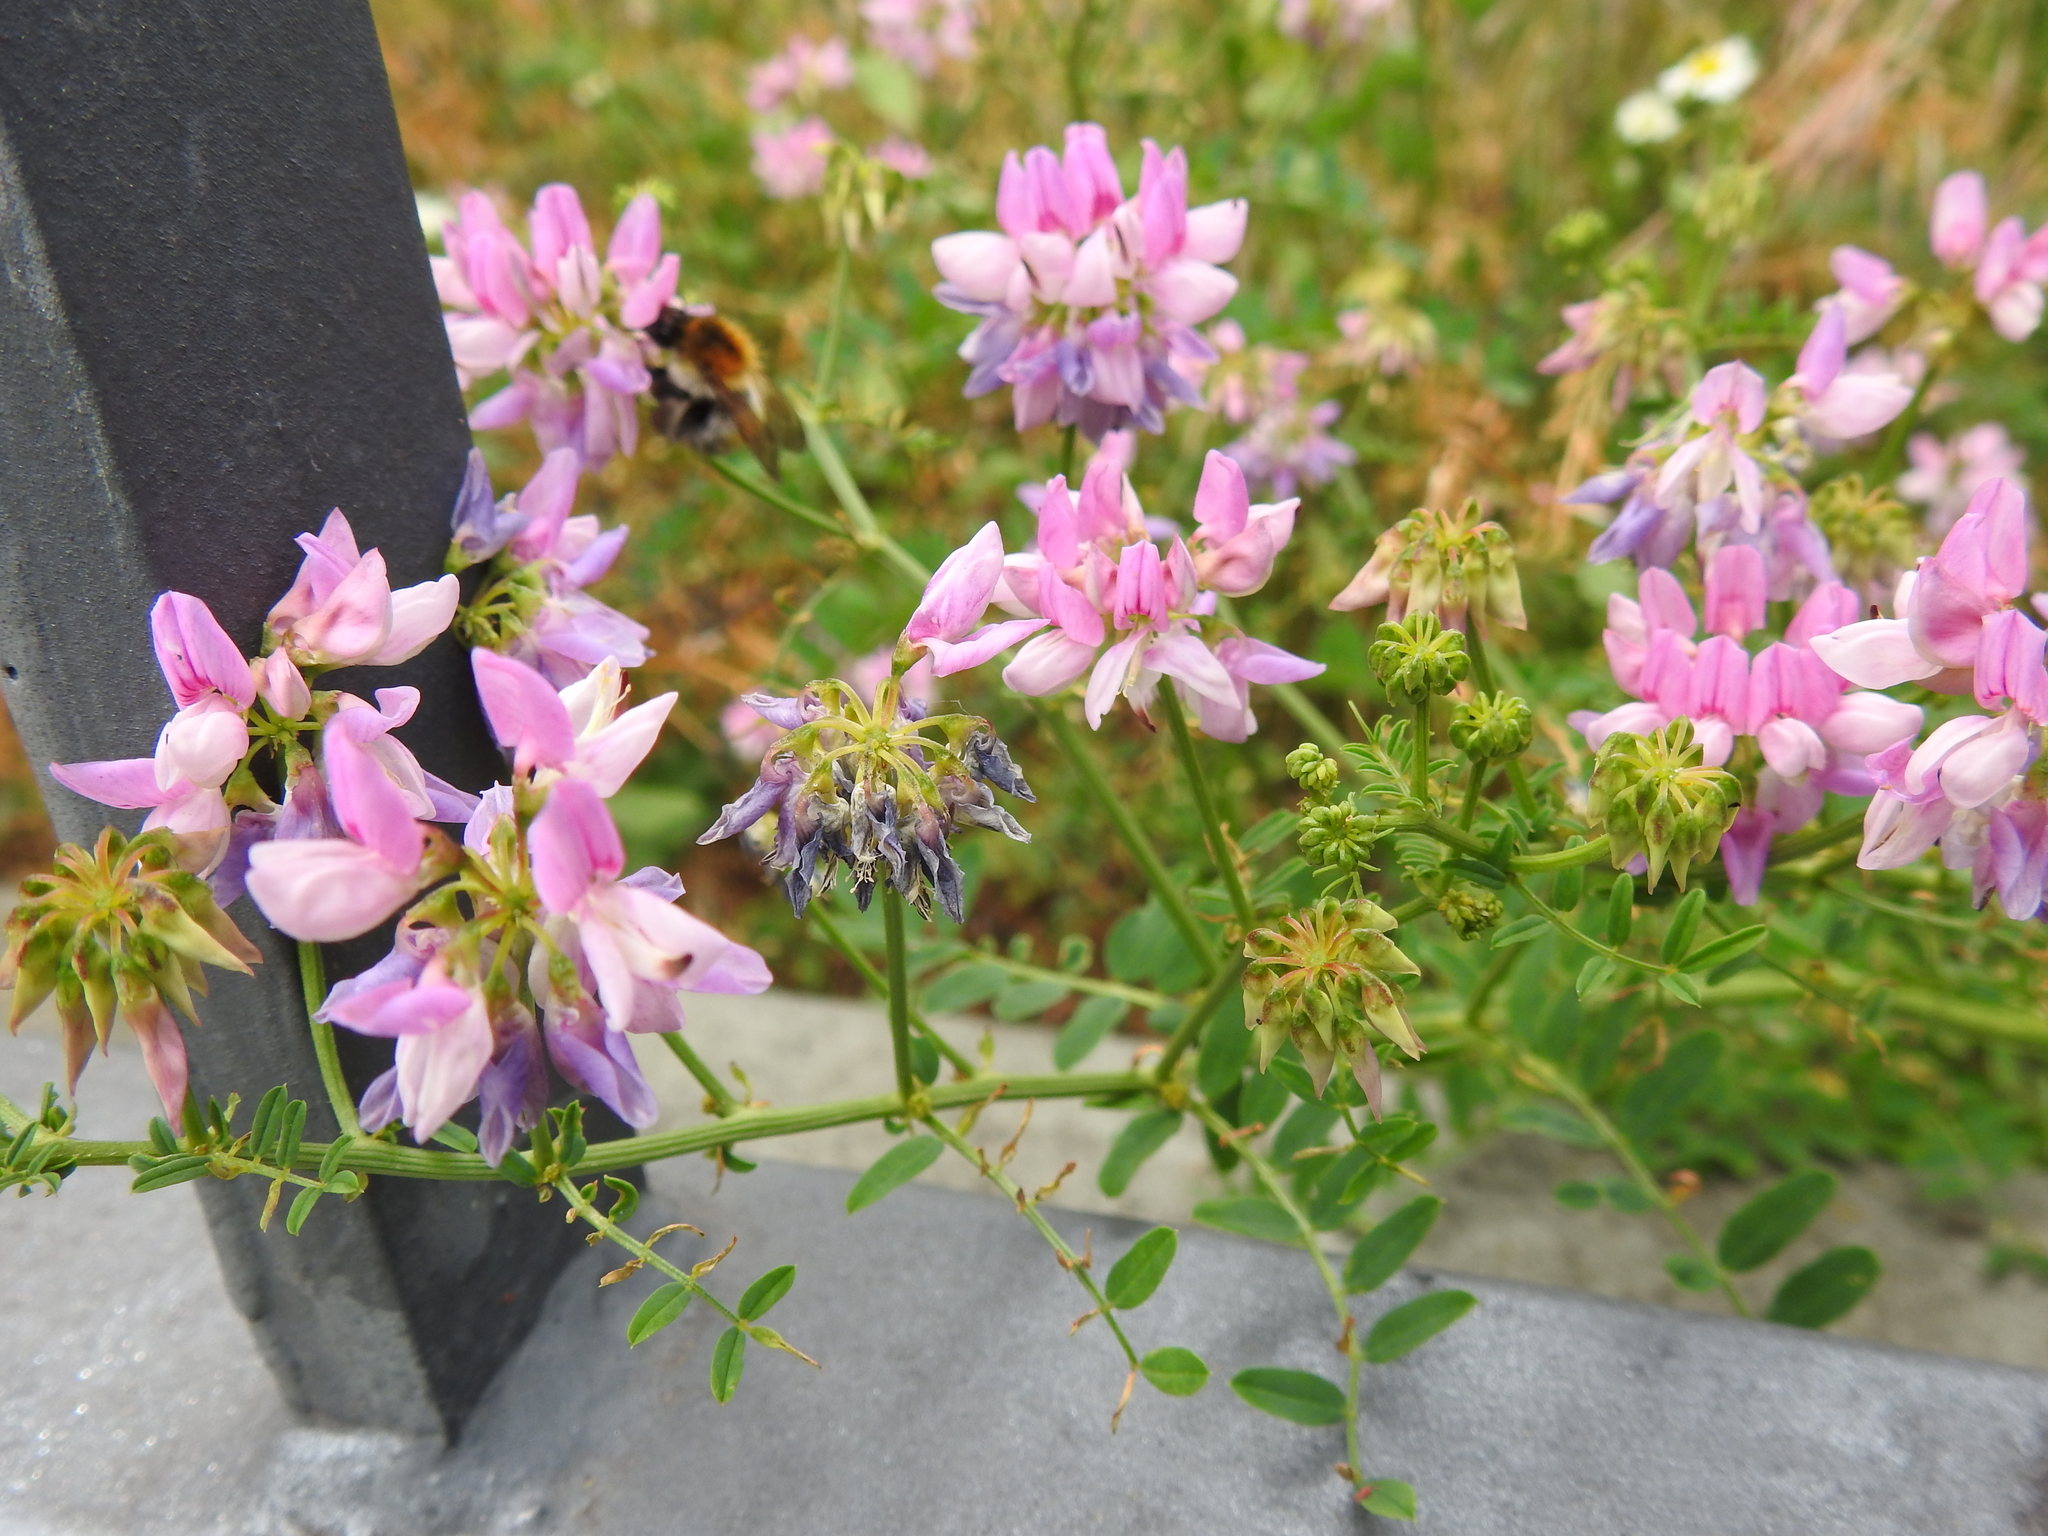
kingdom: Plantae
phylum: Tracheophyta
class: Magnoliopsida
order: Fabales
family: Fabaceae
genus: Coronilla
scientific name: Coronilla varia
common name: Crownvetch
